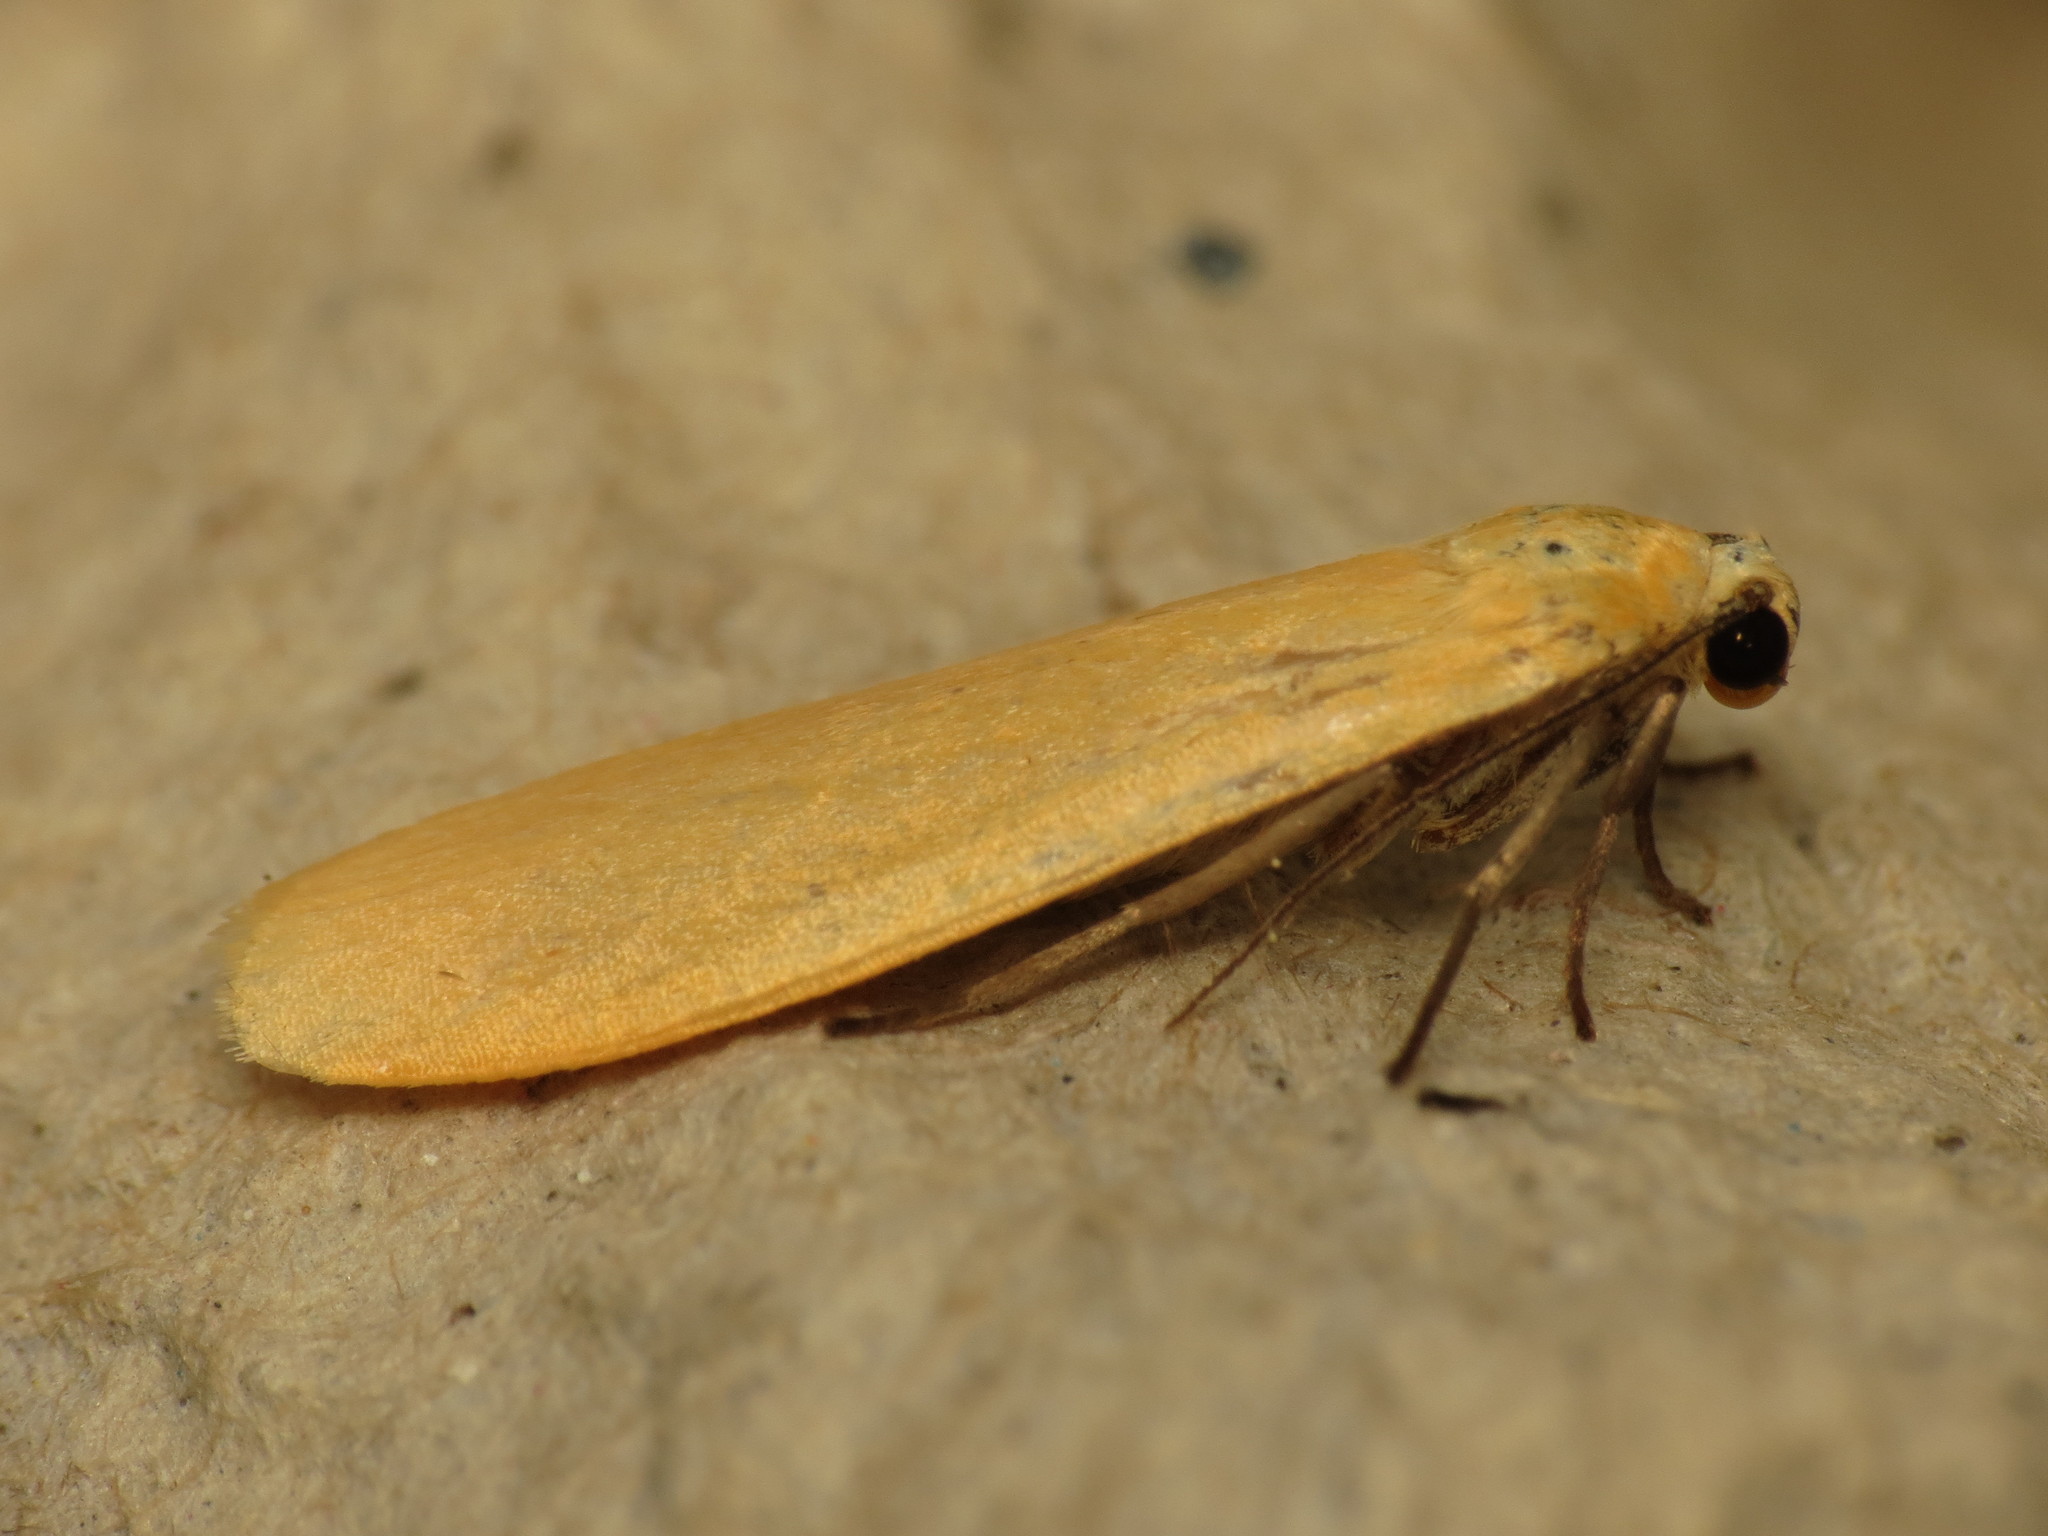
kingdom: Animalia
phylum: Arthropoda
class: Insecta
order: Lepidoptera
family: Erebidae
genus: Wittia
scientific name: Wittia sororcula
